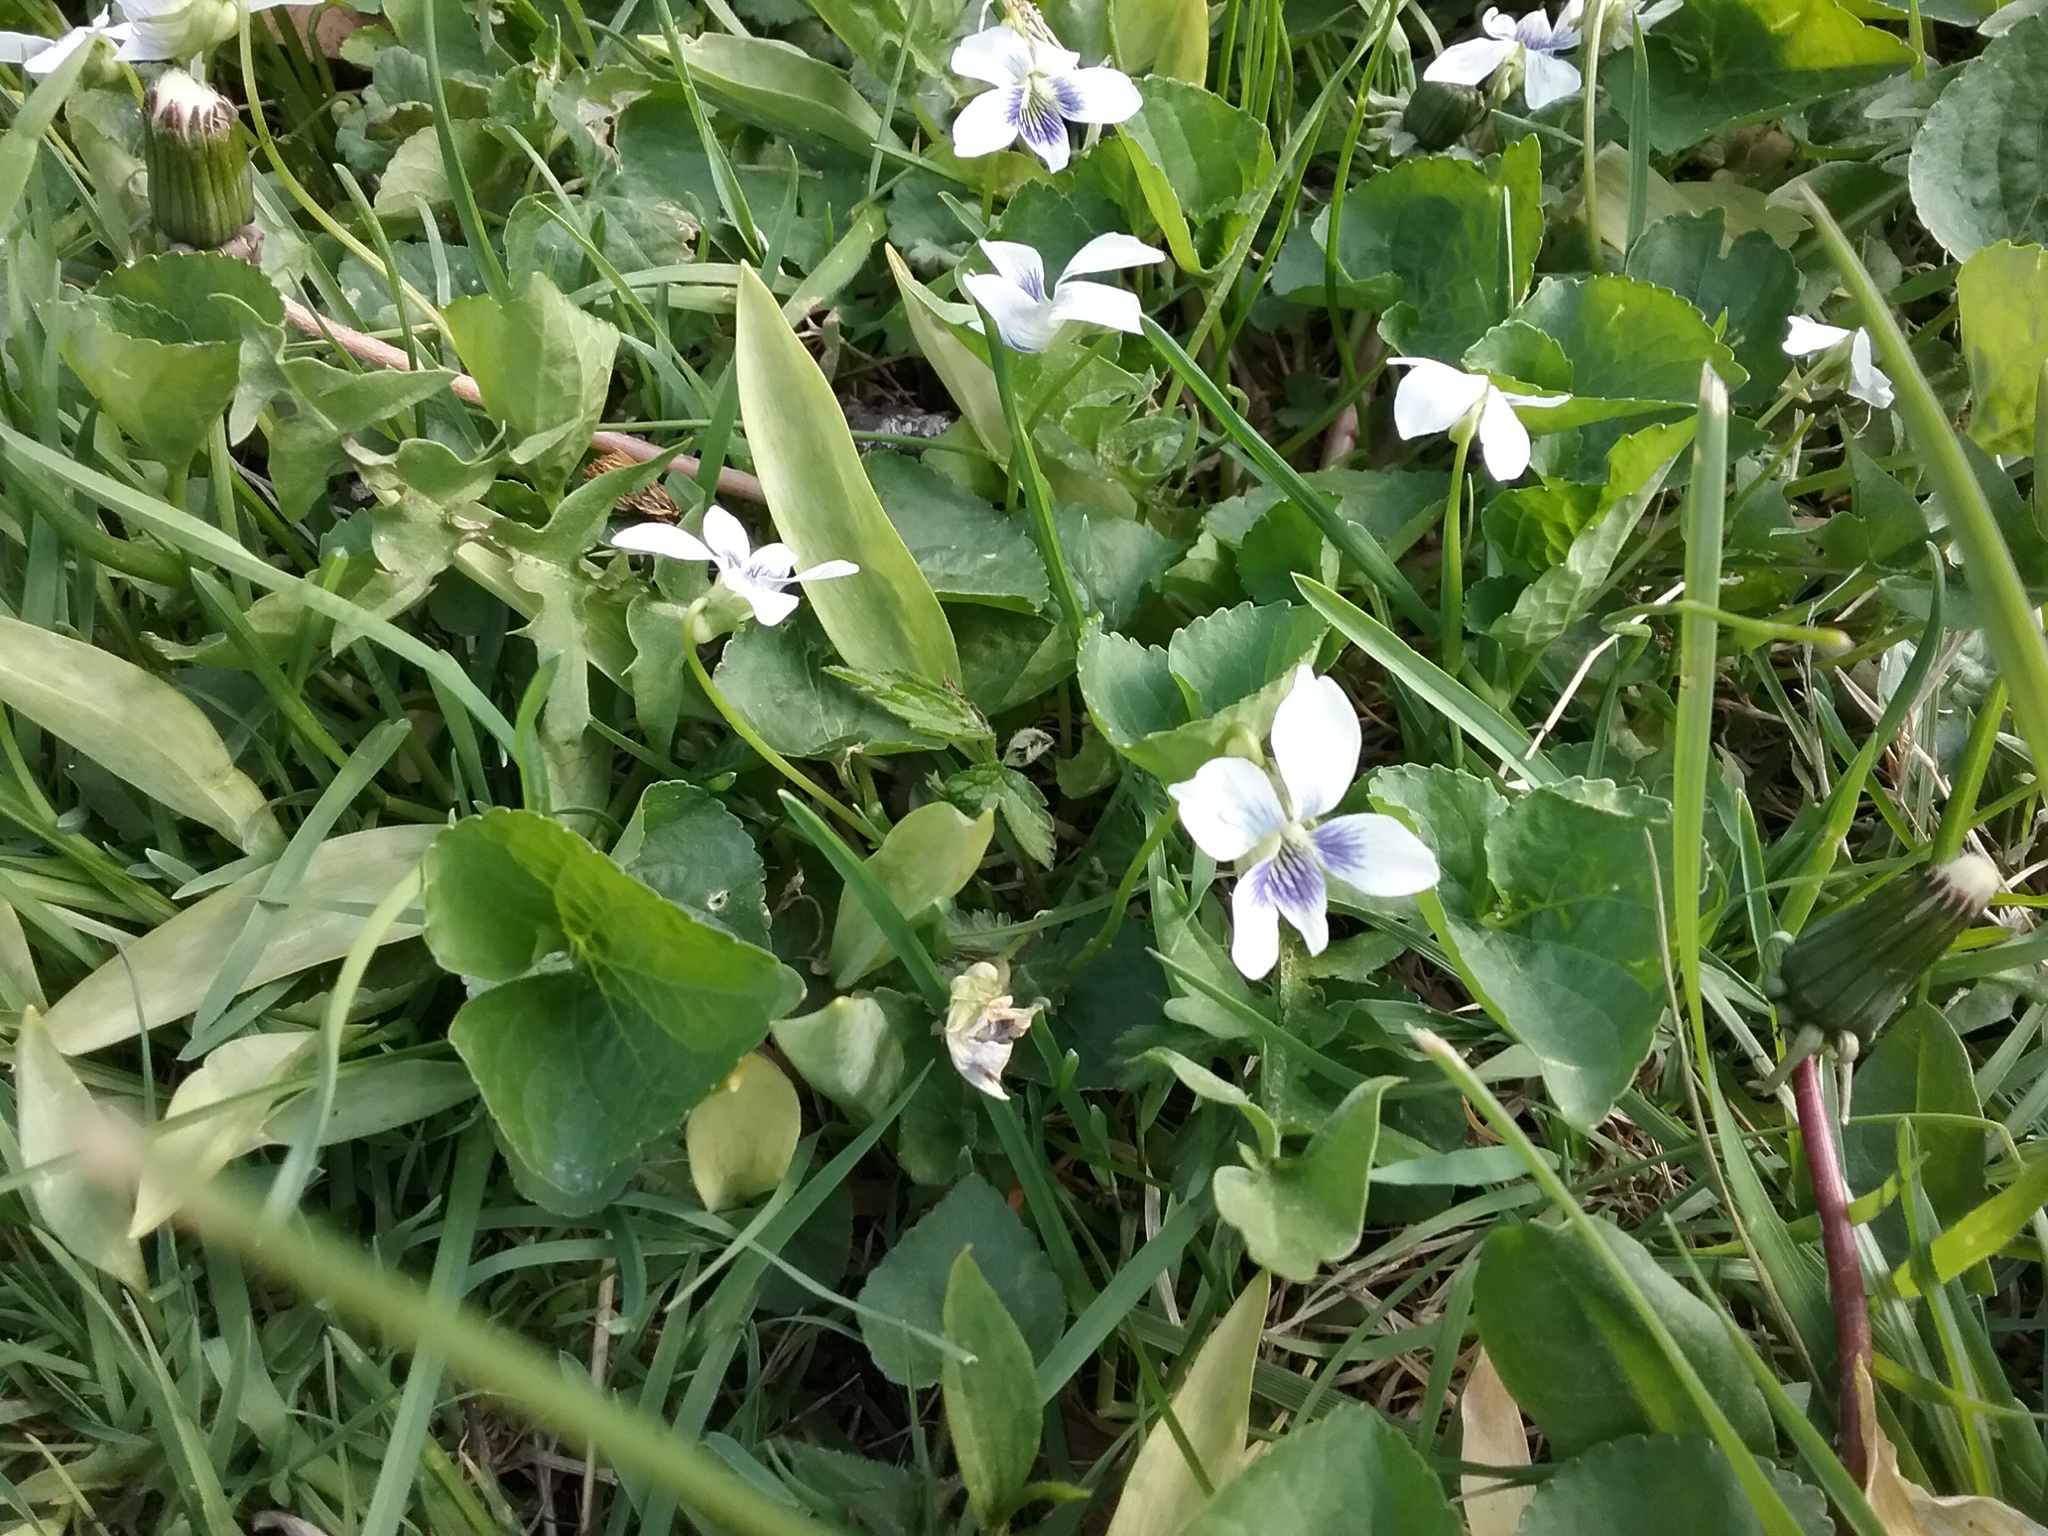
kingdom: Plantae
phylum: Tracheophyta
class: Magnoliopsida
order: Malpighiales
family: Violaceae
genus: Viola
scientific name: Viola sororia
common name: Dooryard violet
